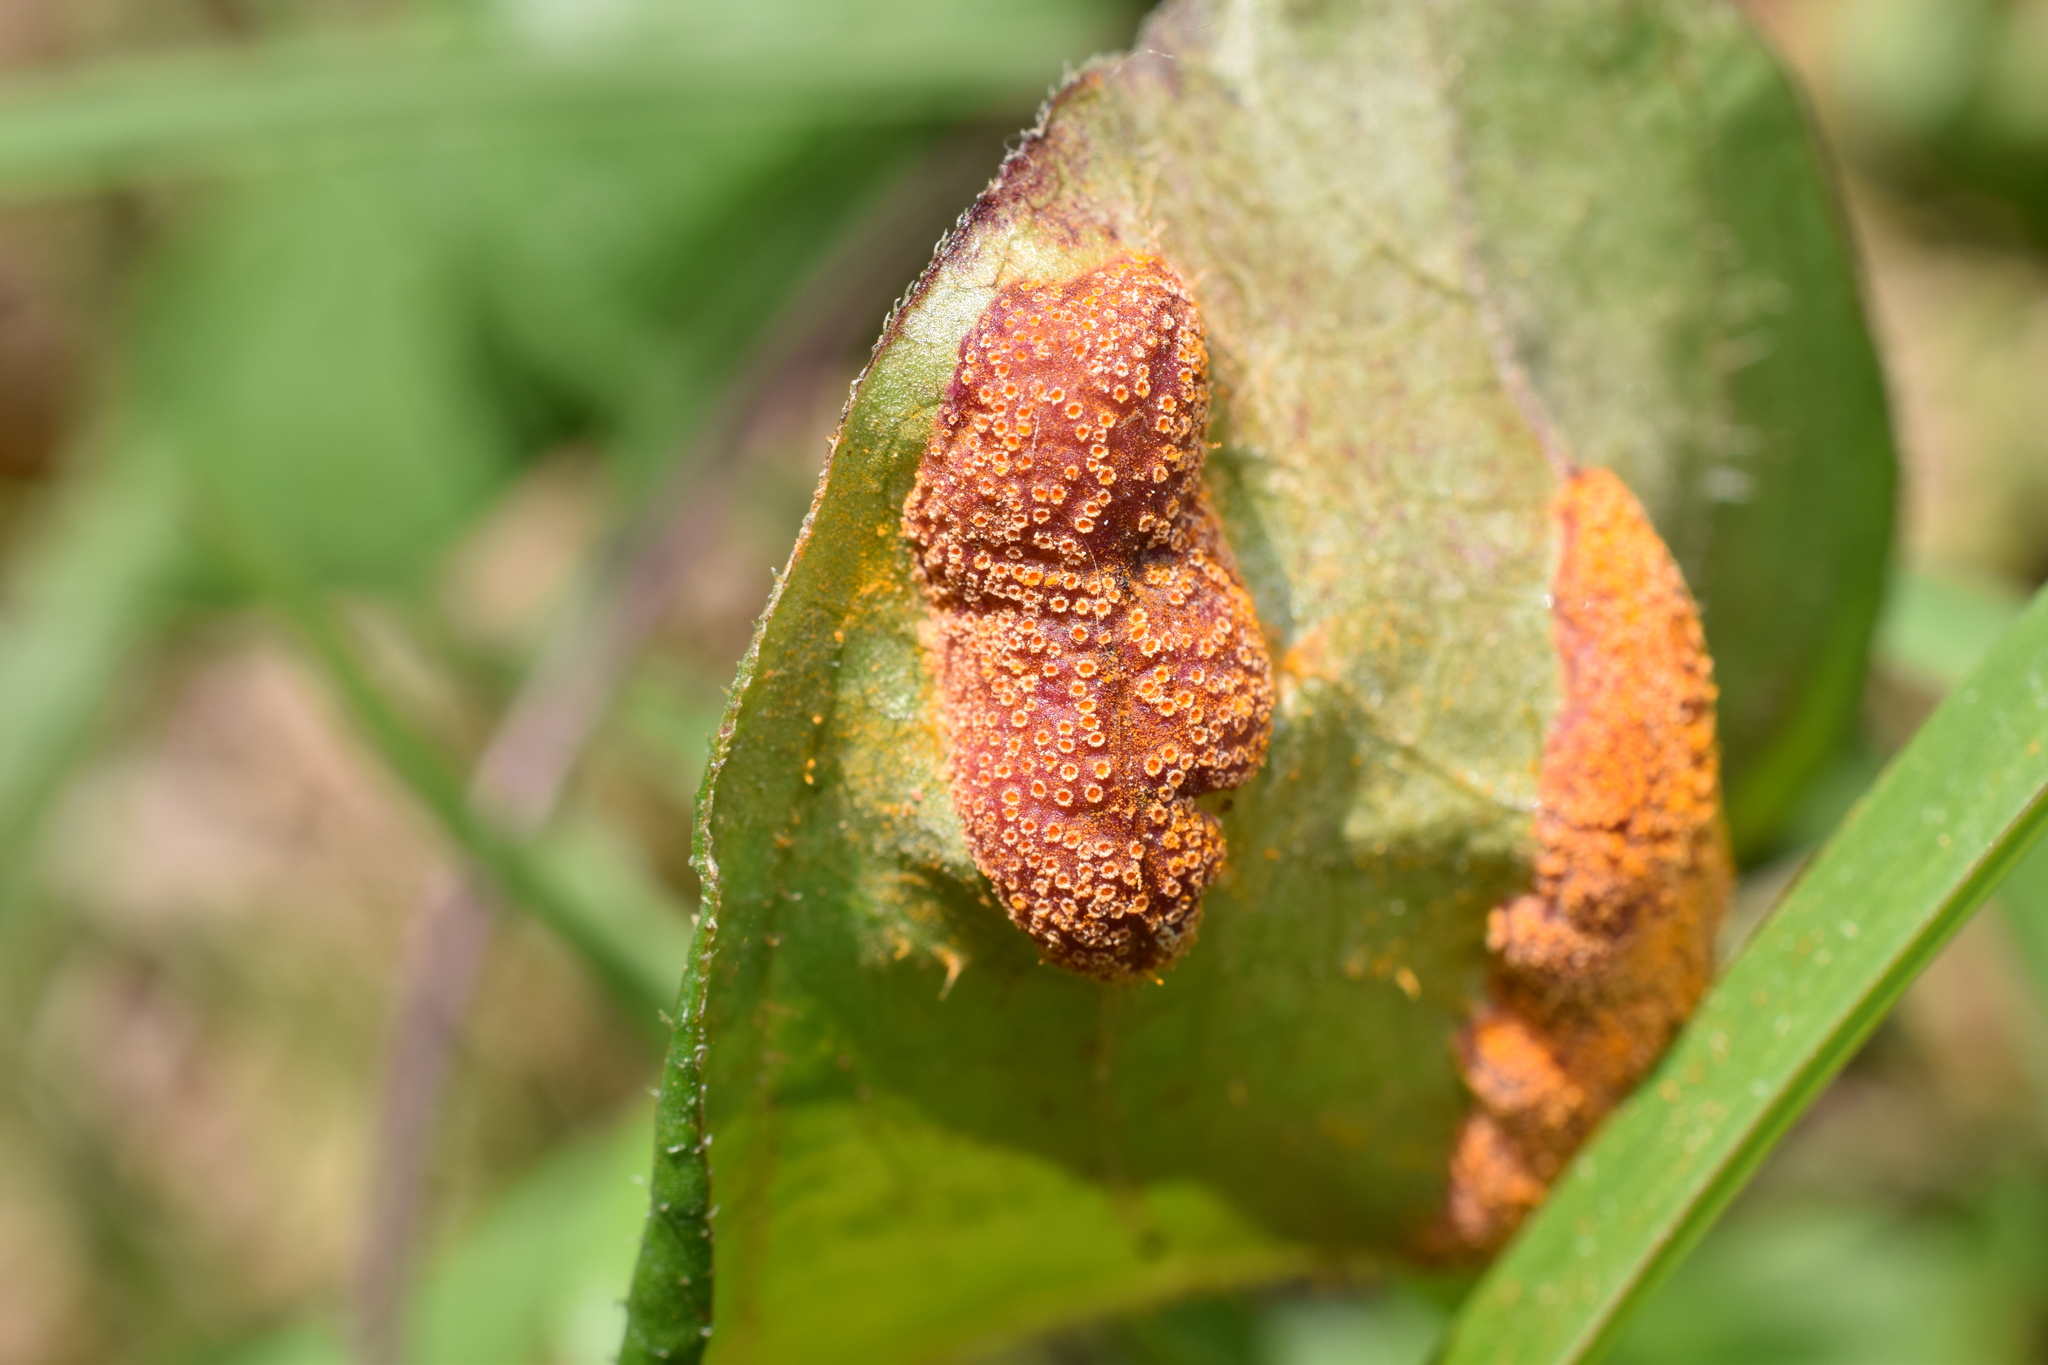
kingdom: Fungi
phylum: Basidiomycota
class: Pucciniomycetes
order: Pucciniales
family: Pucciniaceae
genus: Puccinia
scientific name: Puccinia paederiae
